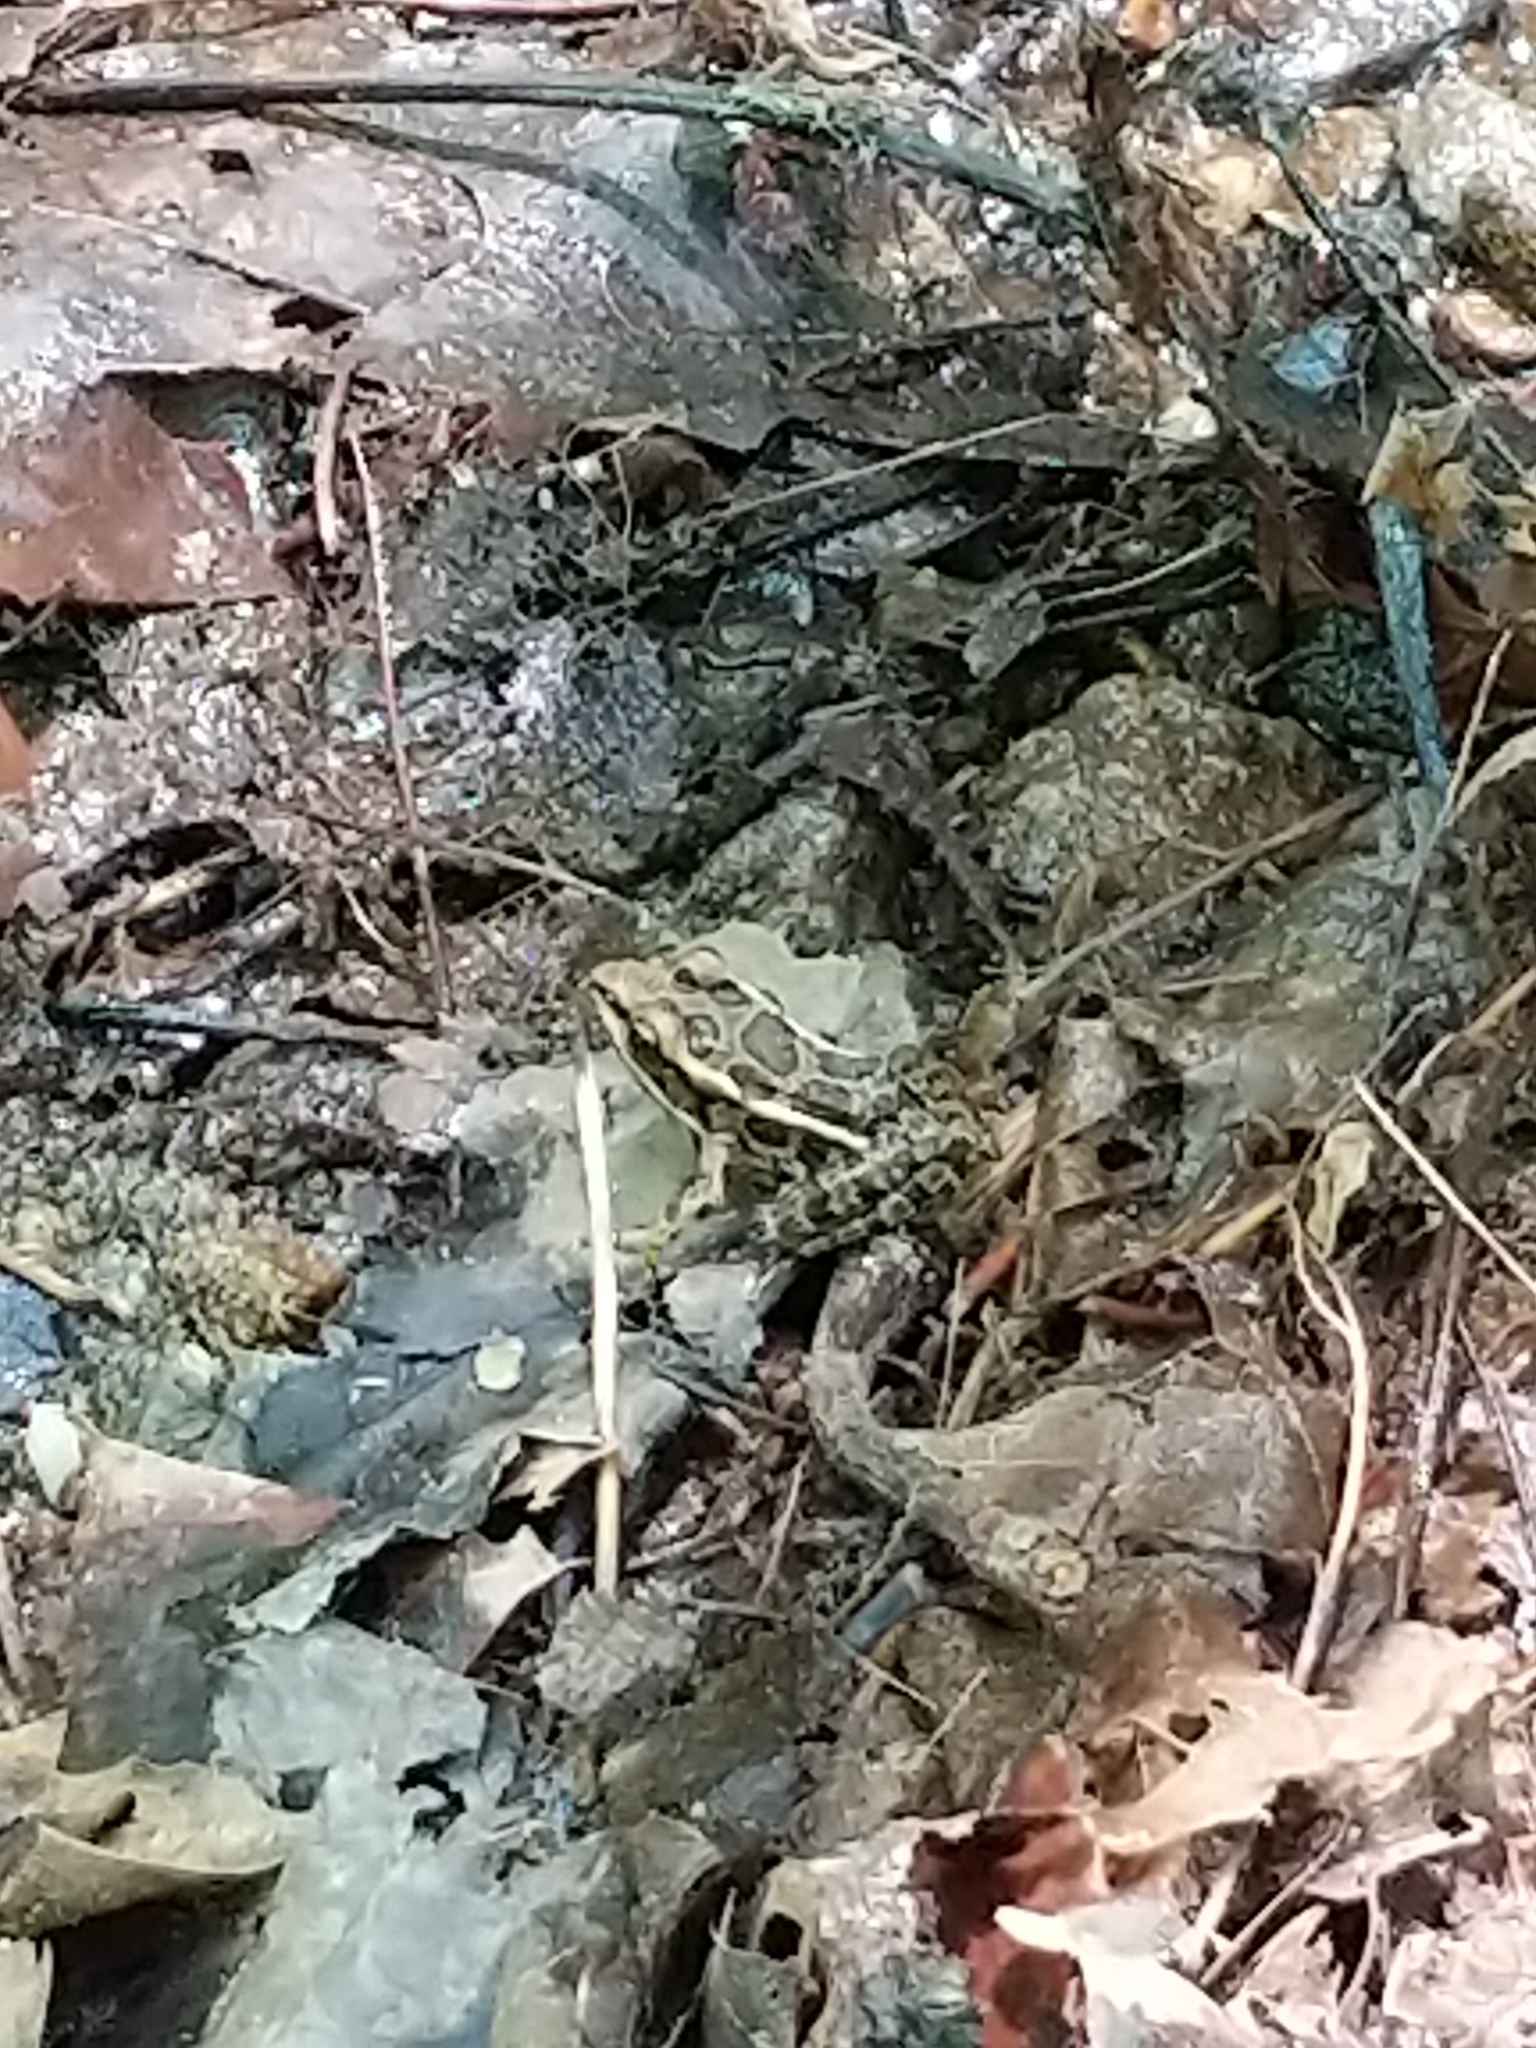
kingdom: Animalia
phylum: Chordata
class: Amphibia
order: Anura
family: Ranidae
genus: Lithobates
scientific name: Lithobates palustris
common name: Pickerel frog
